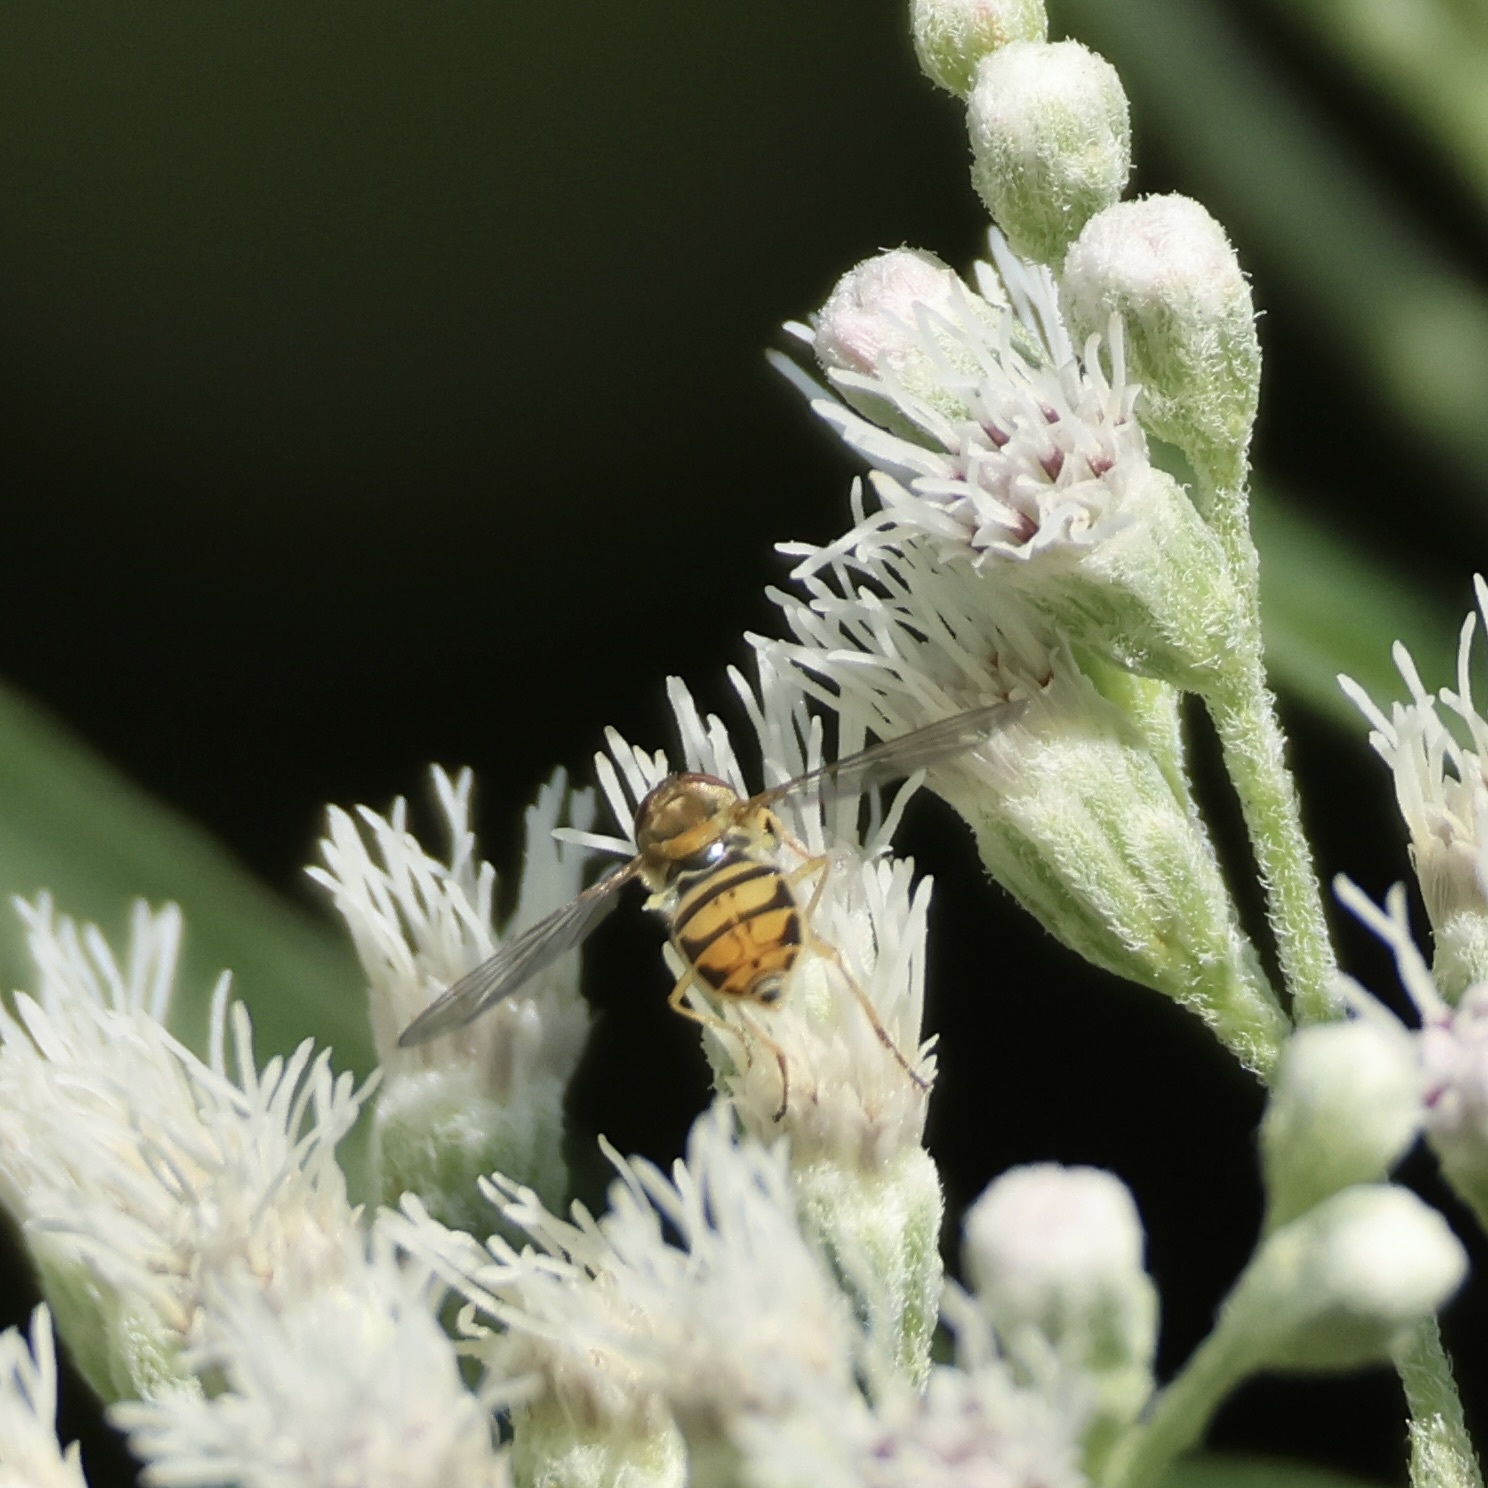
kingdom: Animalia
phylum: Arthropoda
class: Insecta
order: Diptera
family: Syrphidae
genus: Toxomerus
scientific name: Toxomerus marginatus
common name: Syrphid fly
